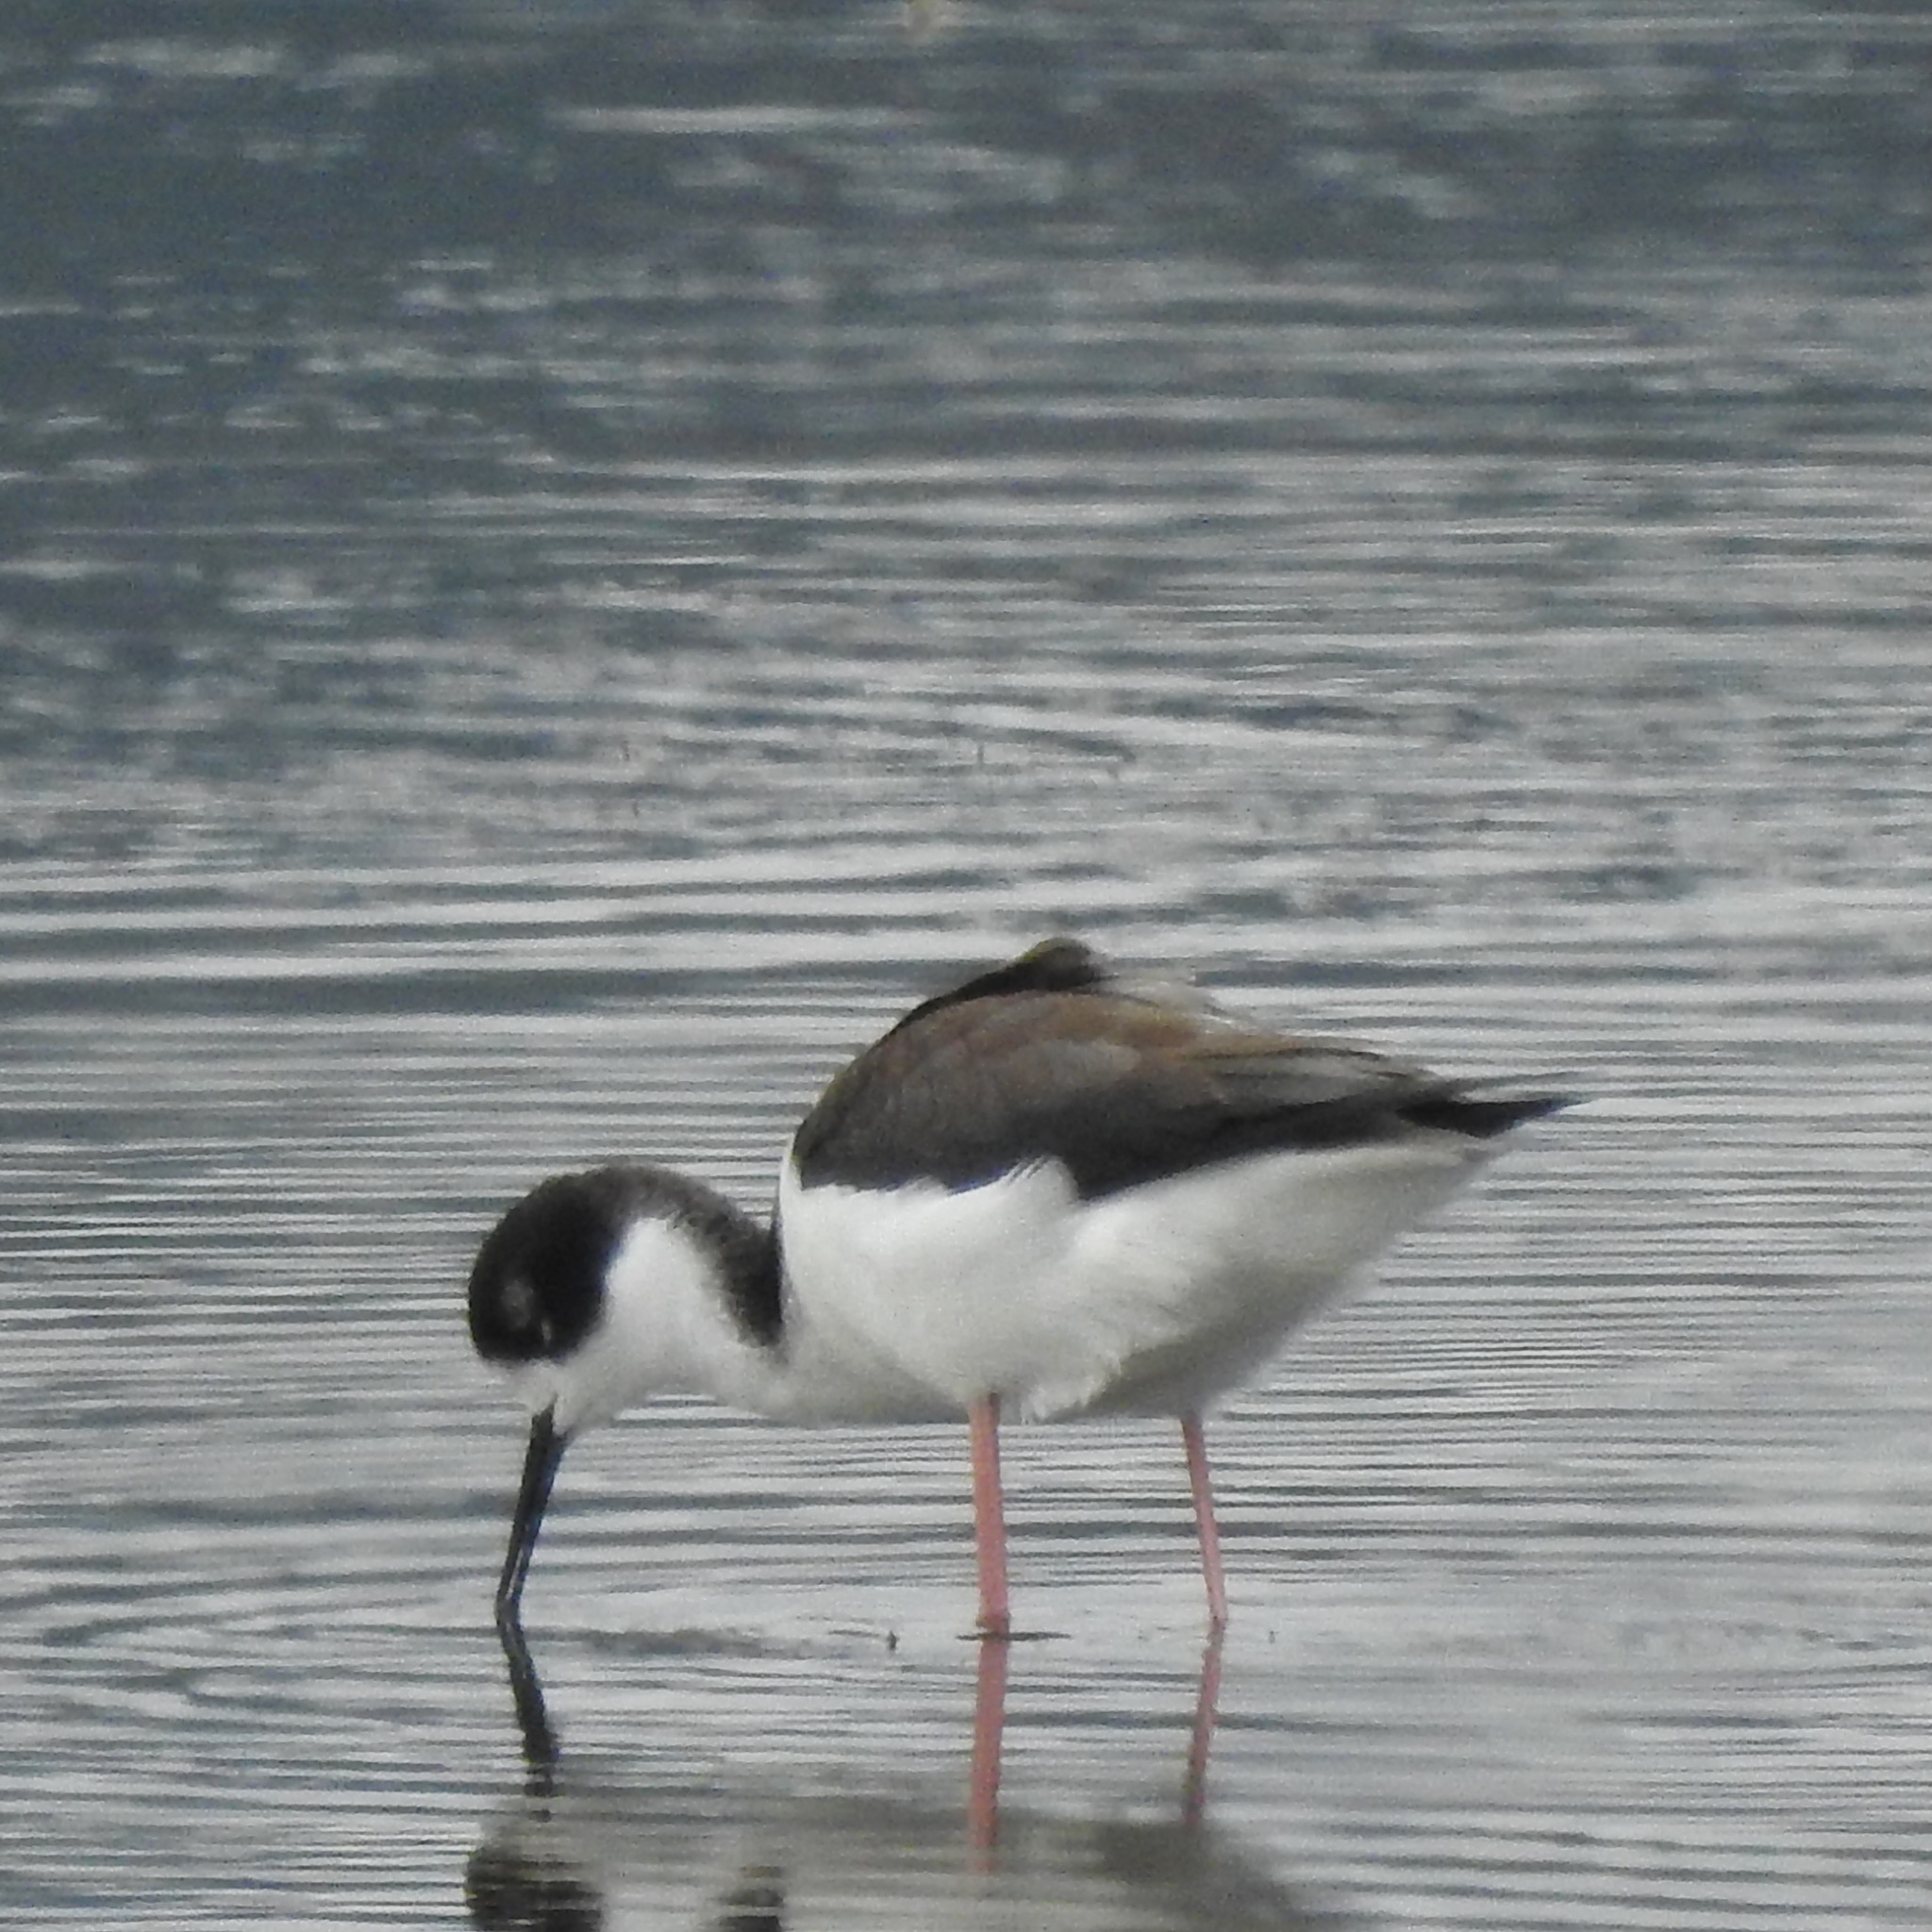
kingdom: Animalia
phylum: Chordata
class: Aves
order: Charadriiformes
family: Recurvirostridae
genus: Himantopus
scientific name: Himantopus mexicanus
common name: Black-necked stilt
